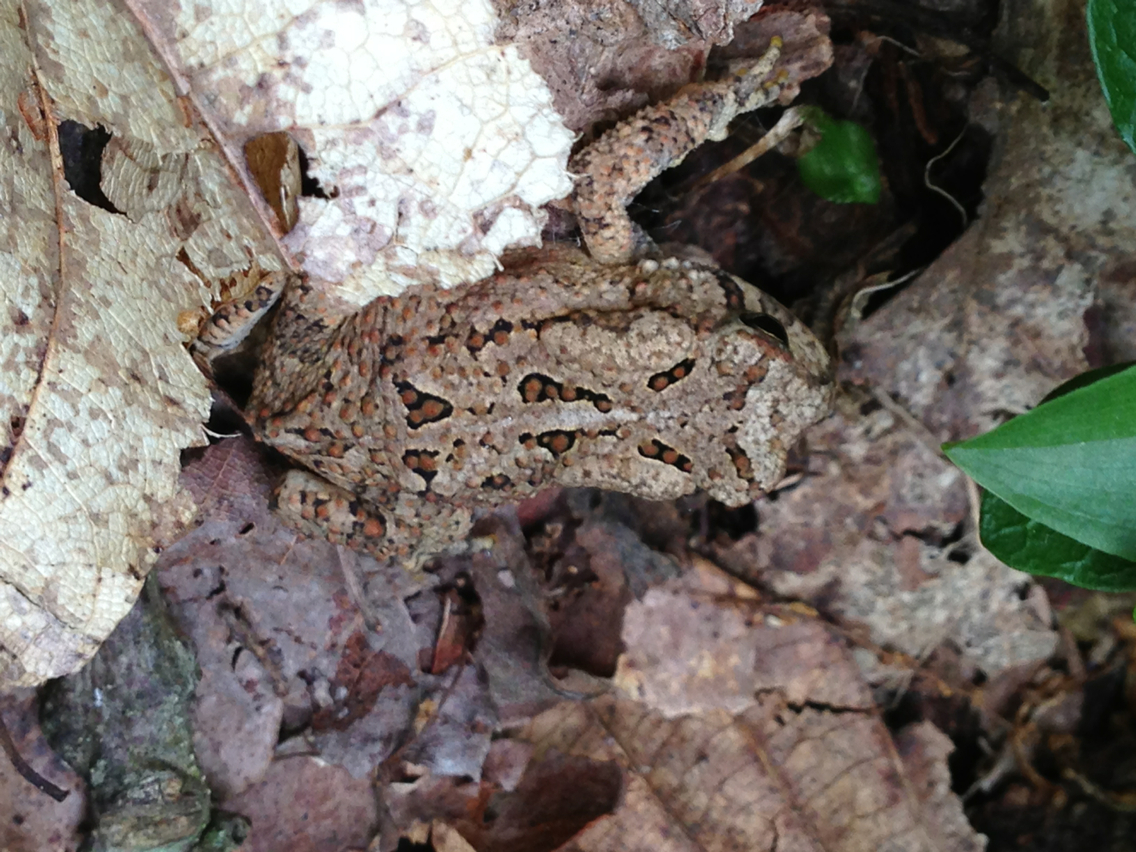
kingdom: Animalia
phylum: Chordata
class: Amphibia
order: Anura
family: Bufonidae
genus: Anaxyrus
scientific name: Anaxyrus americanus
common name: American toad
